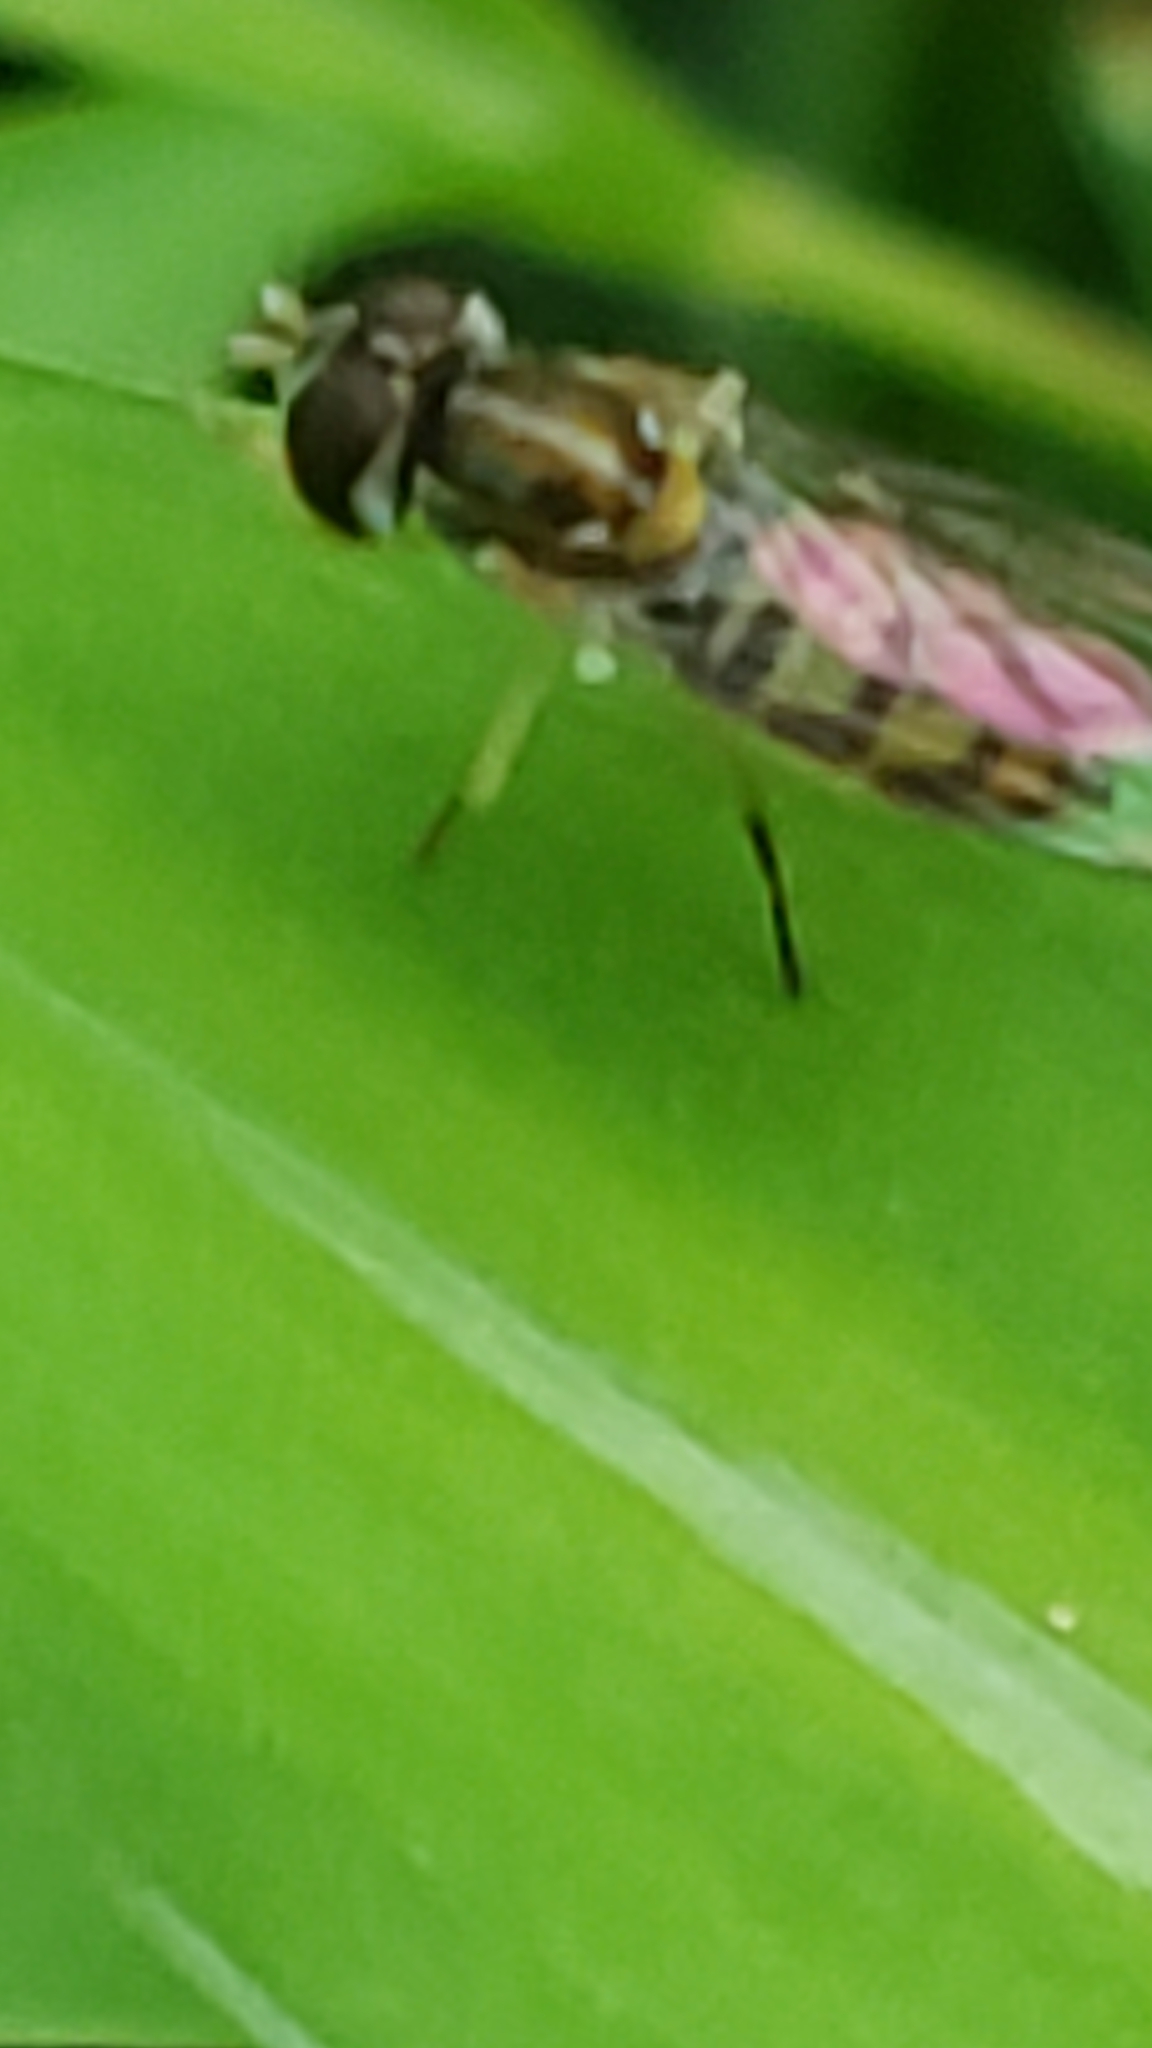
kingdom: Animalia
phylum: Arthropoda
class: Insecta
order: Diptera
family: Syrphidae
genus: Toxomerus
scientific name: Toxomerus marginatus
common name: Syrphid fly
